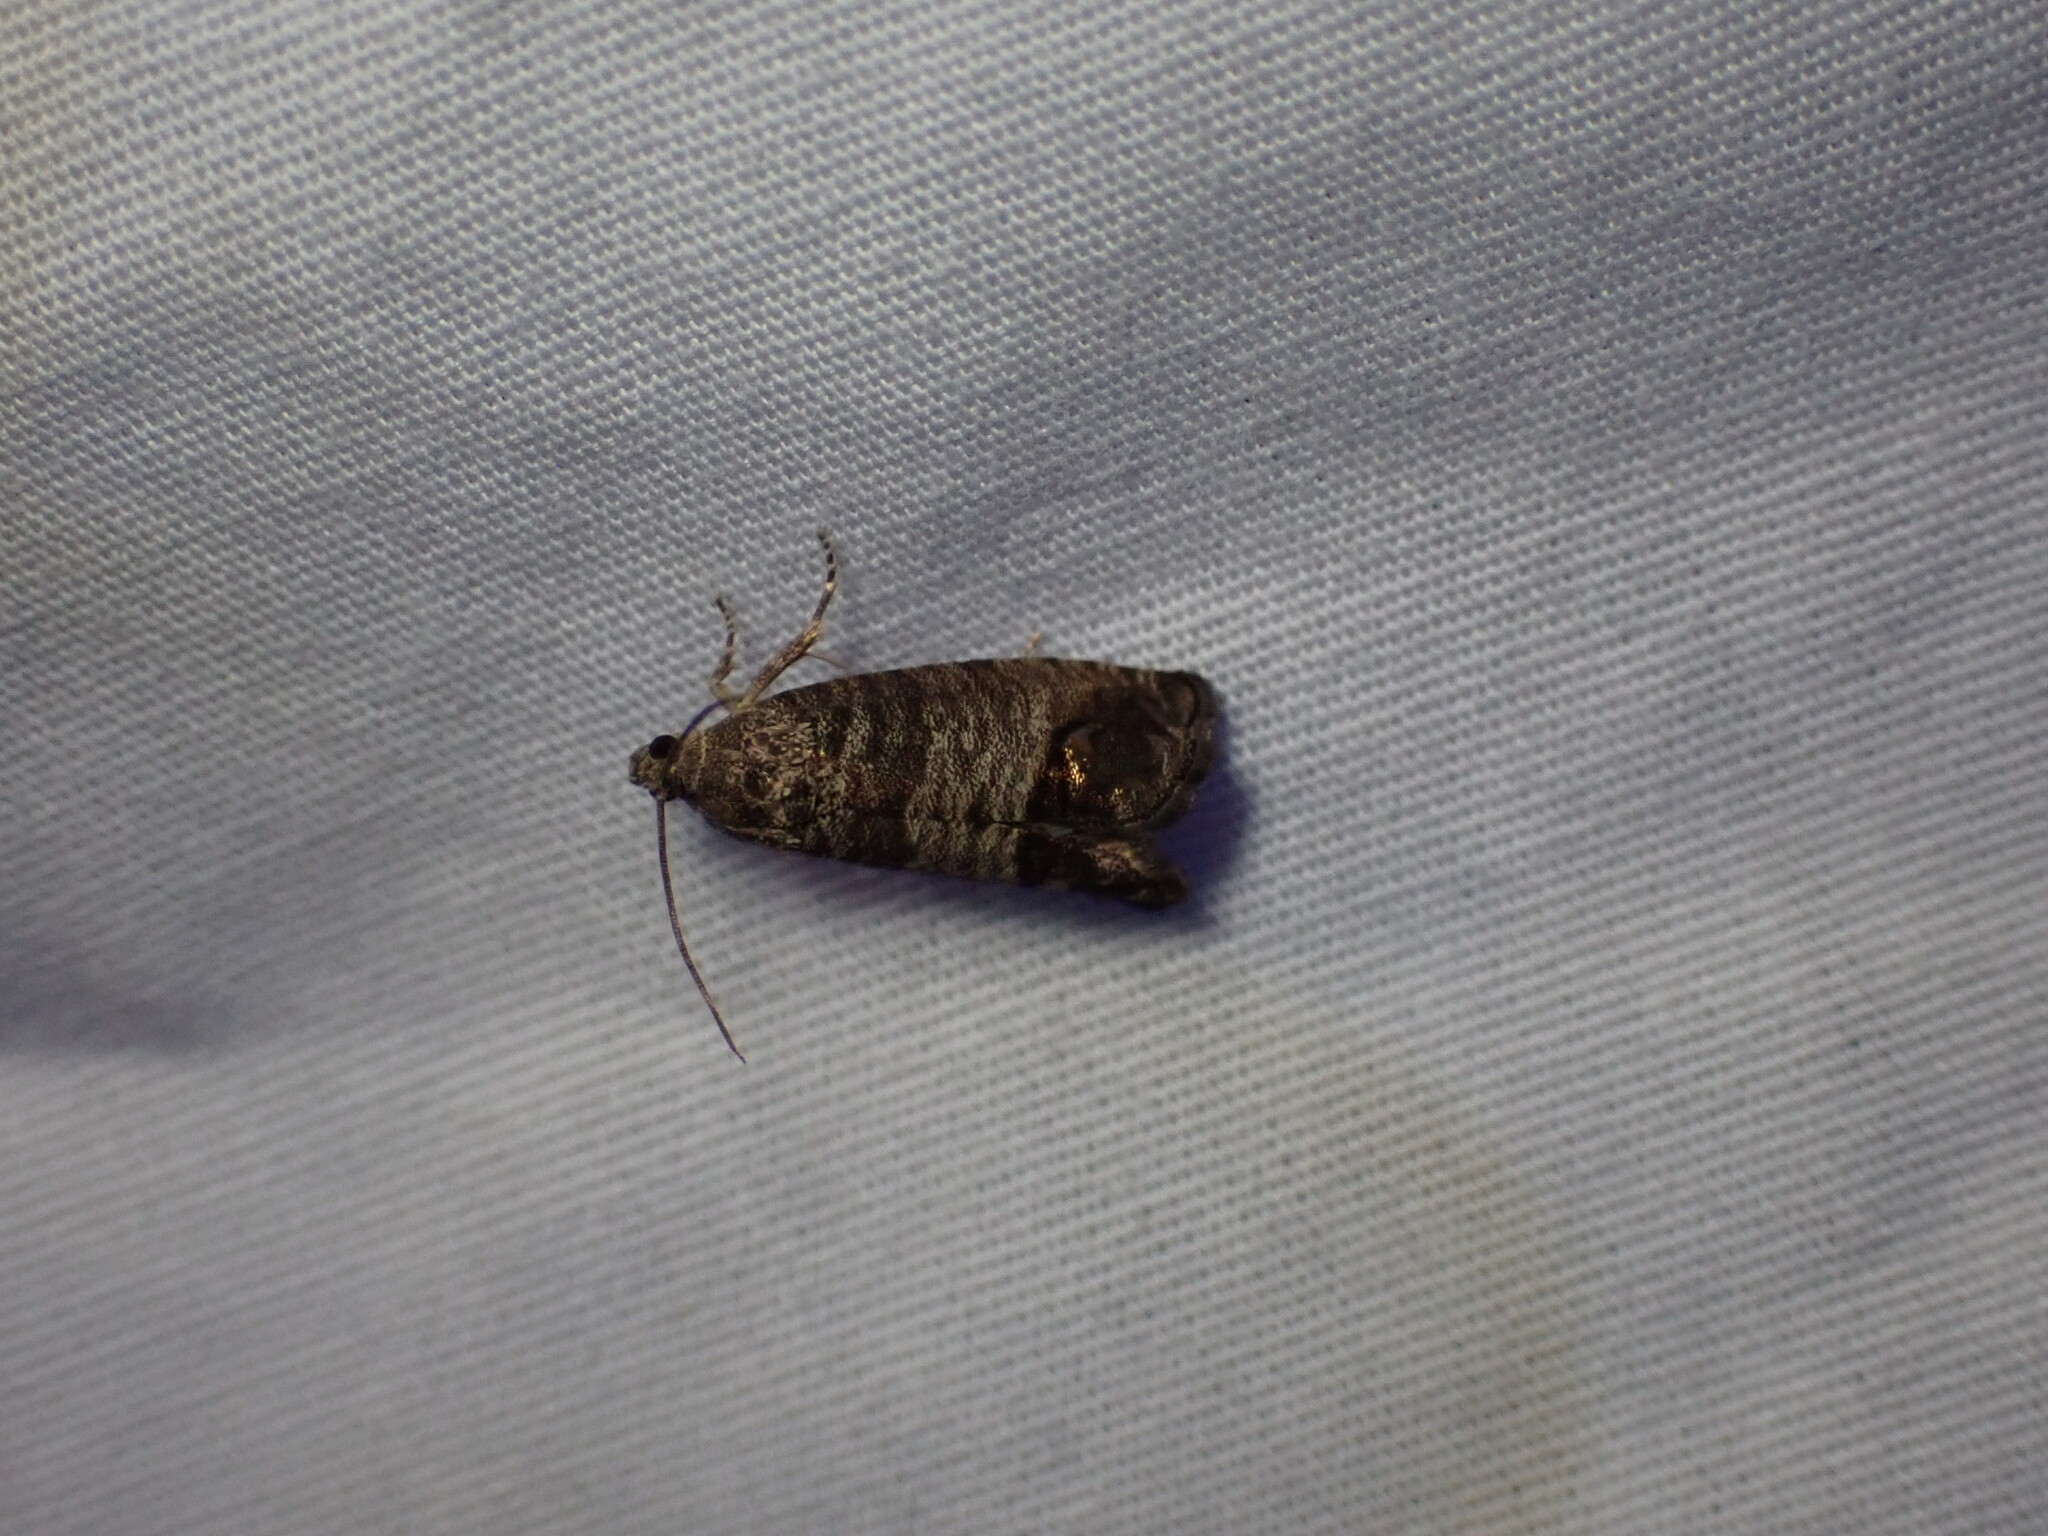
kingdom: Animalia
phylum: Arthropoda
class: Insecta
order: Lepidoptera
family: Tortricidae
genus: Cydia
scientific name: Cydia pomonella
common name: Codling moth
